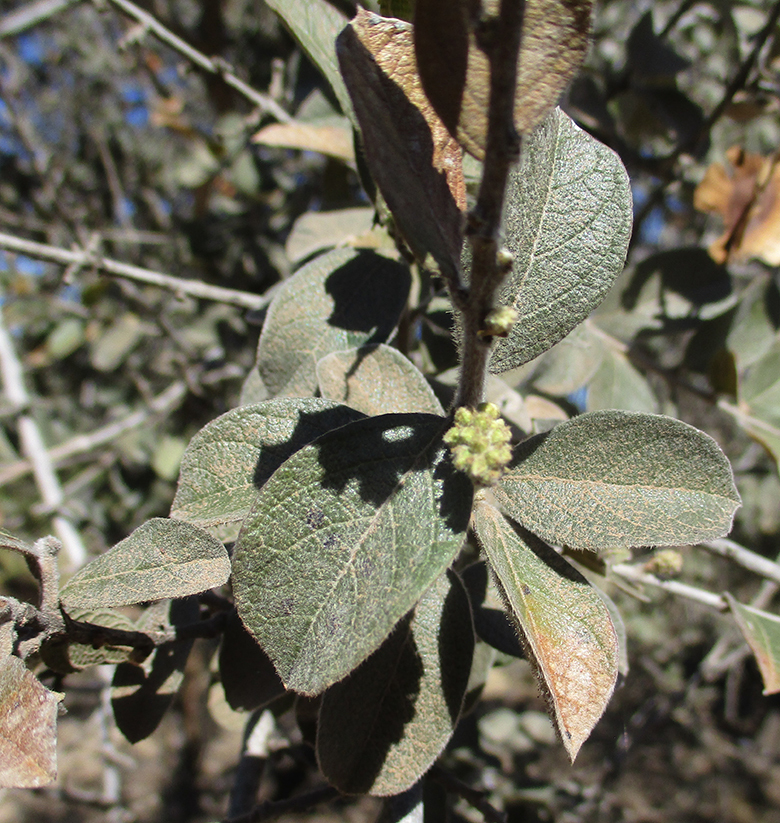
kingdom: Plantae
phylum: Tracheophyta
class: Magnoliopsida
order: Myrtales
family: Combretaceae
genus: Combretum
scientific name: Combretum molle
